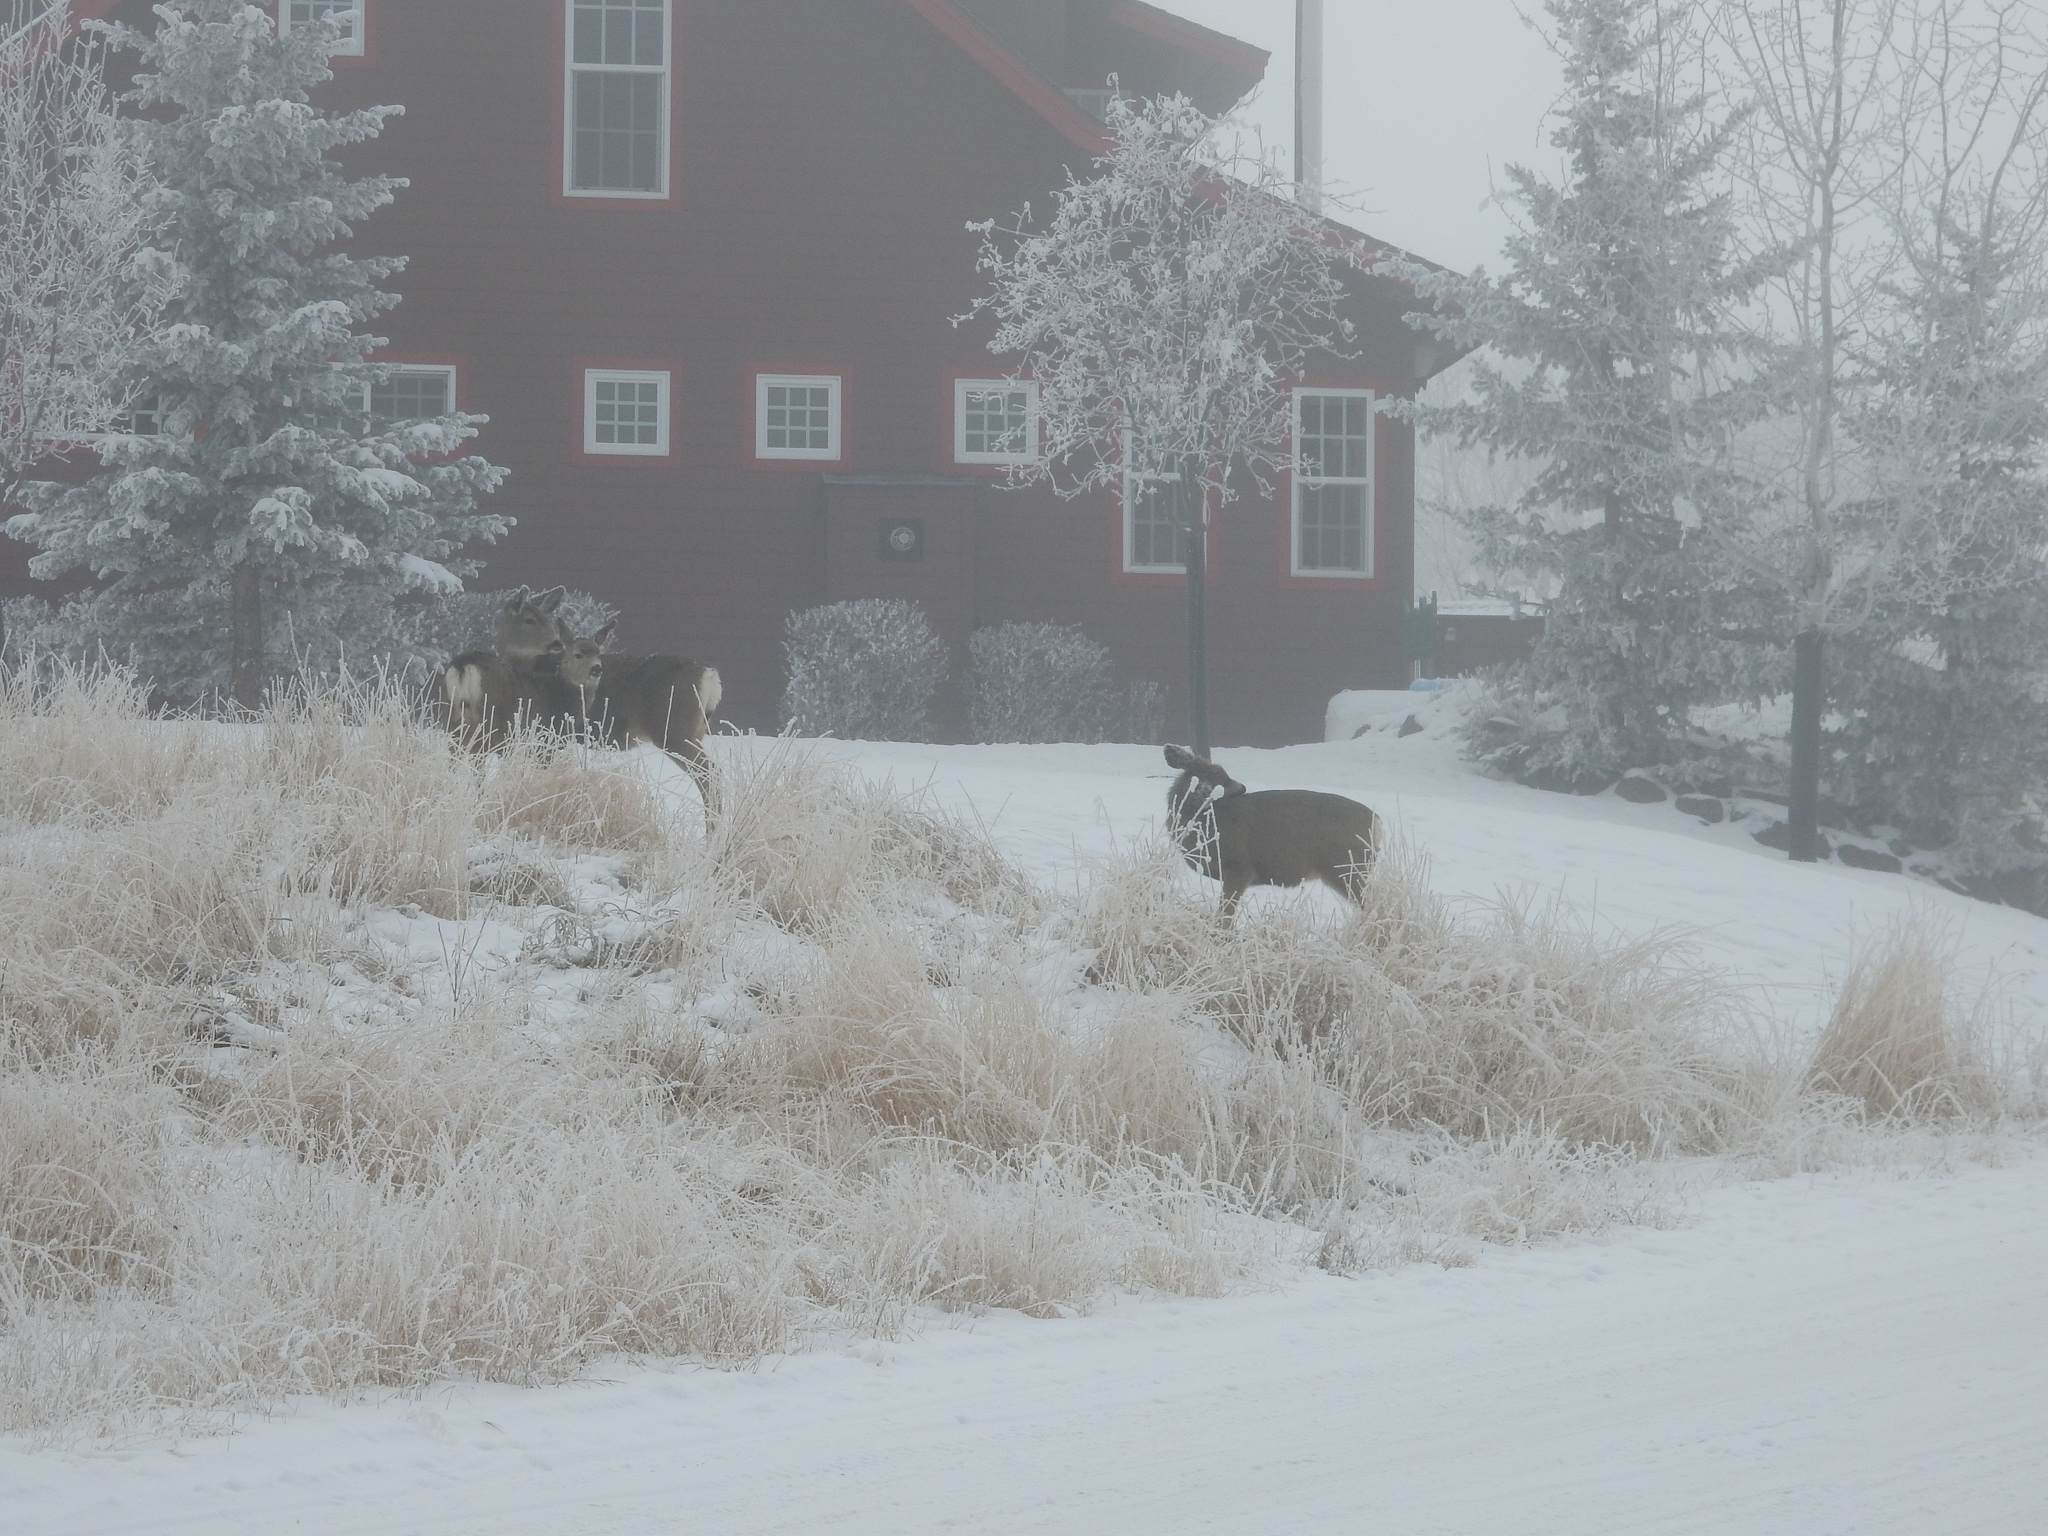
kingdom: Animalia
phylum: Chordata
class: Mammalia
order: Artiodactyla
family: Cervidae
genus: Odocoileus
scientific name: Odocoileus hemionus
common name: Mule deer
